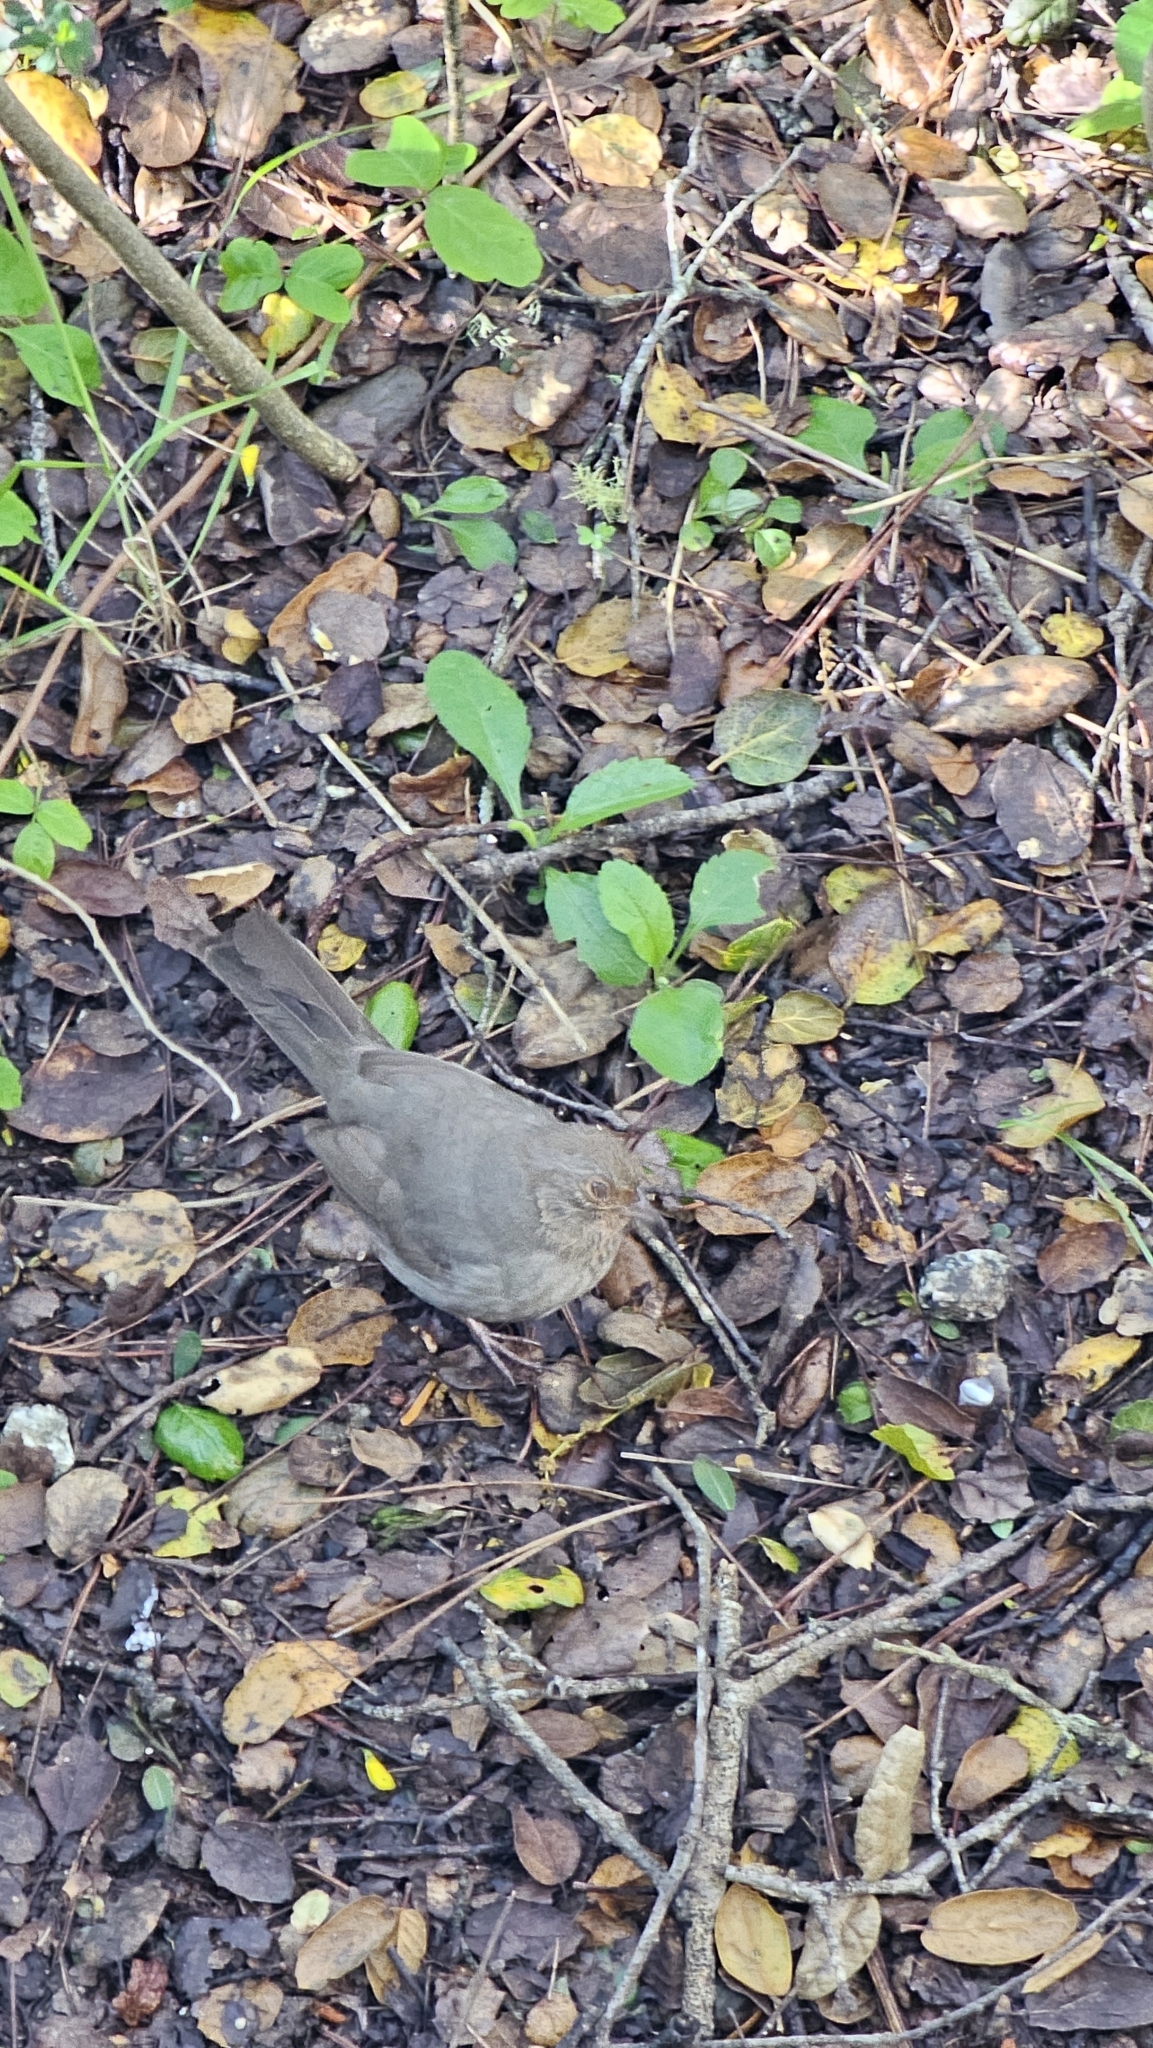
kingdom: Animalia
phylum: Chordata
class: Aves
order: Passeriformes
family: Passerellidae
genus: Melozone
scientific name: Melozone crissalis
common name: California towhee
